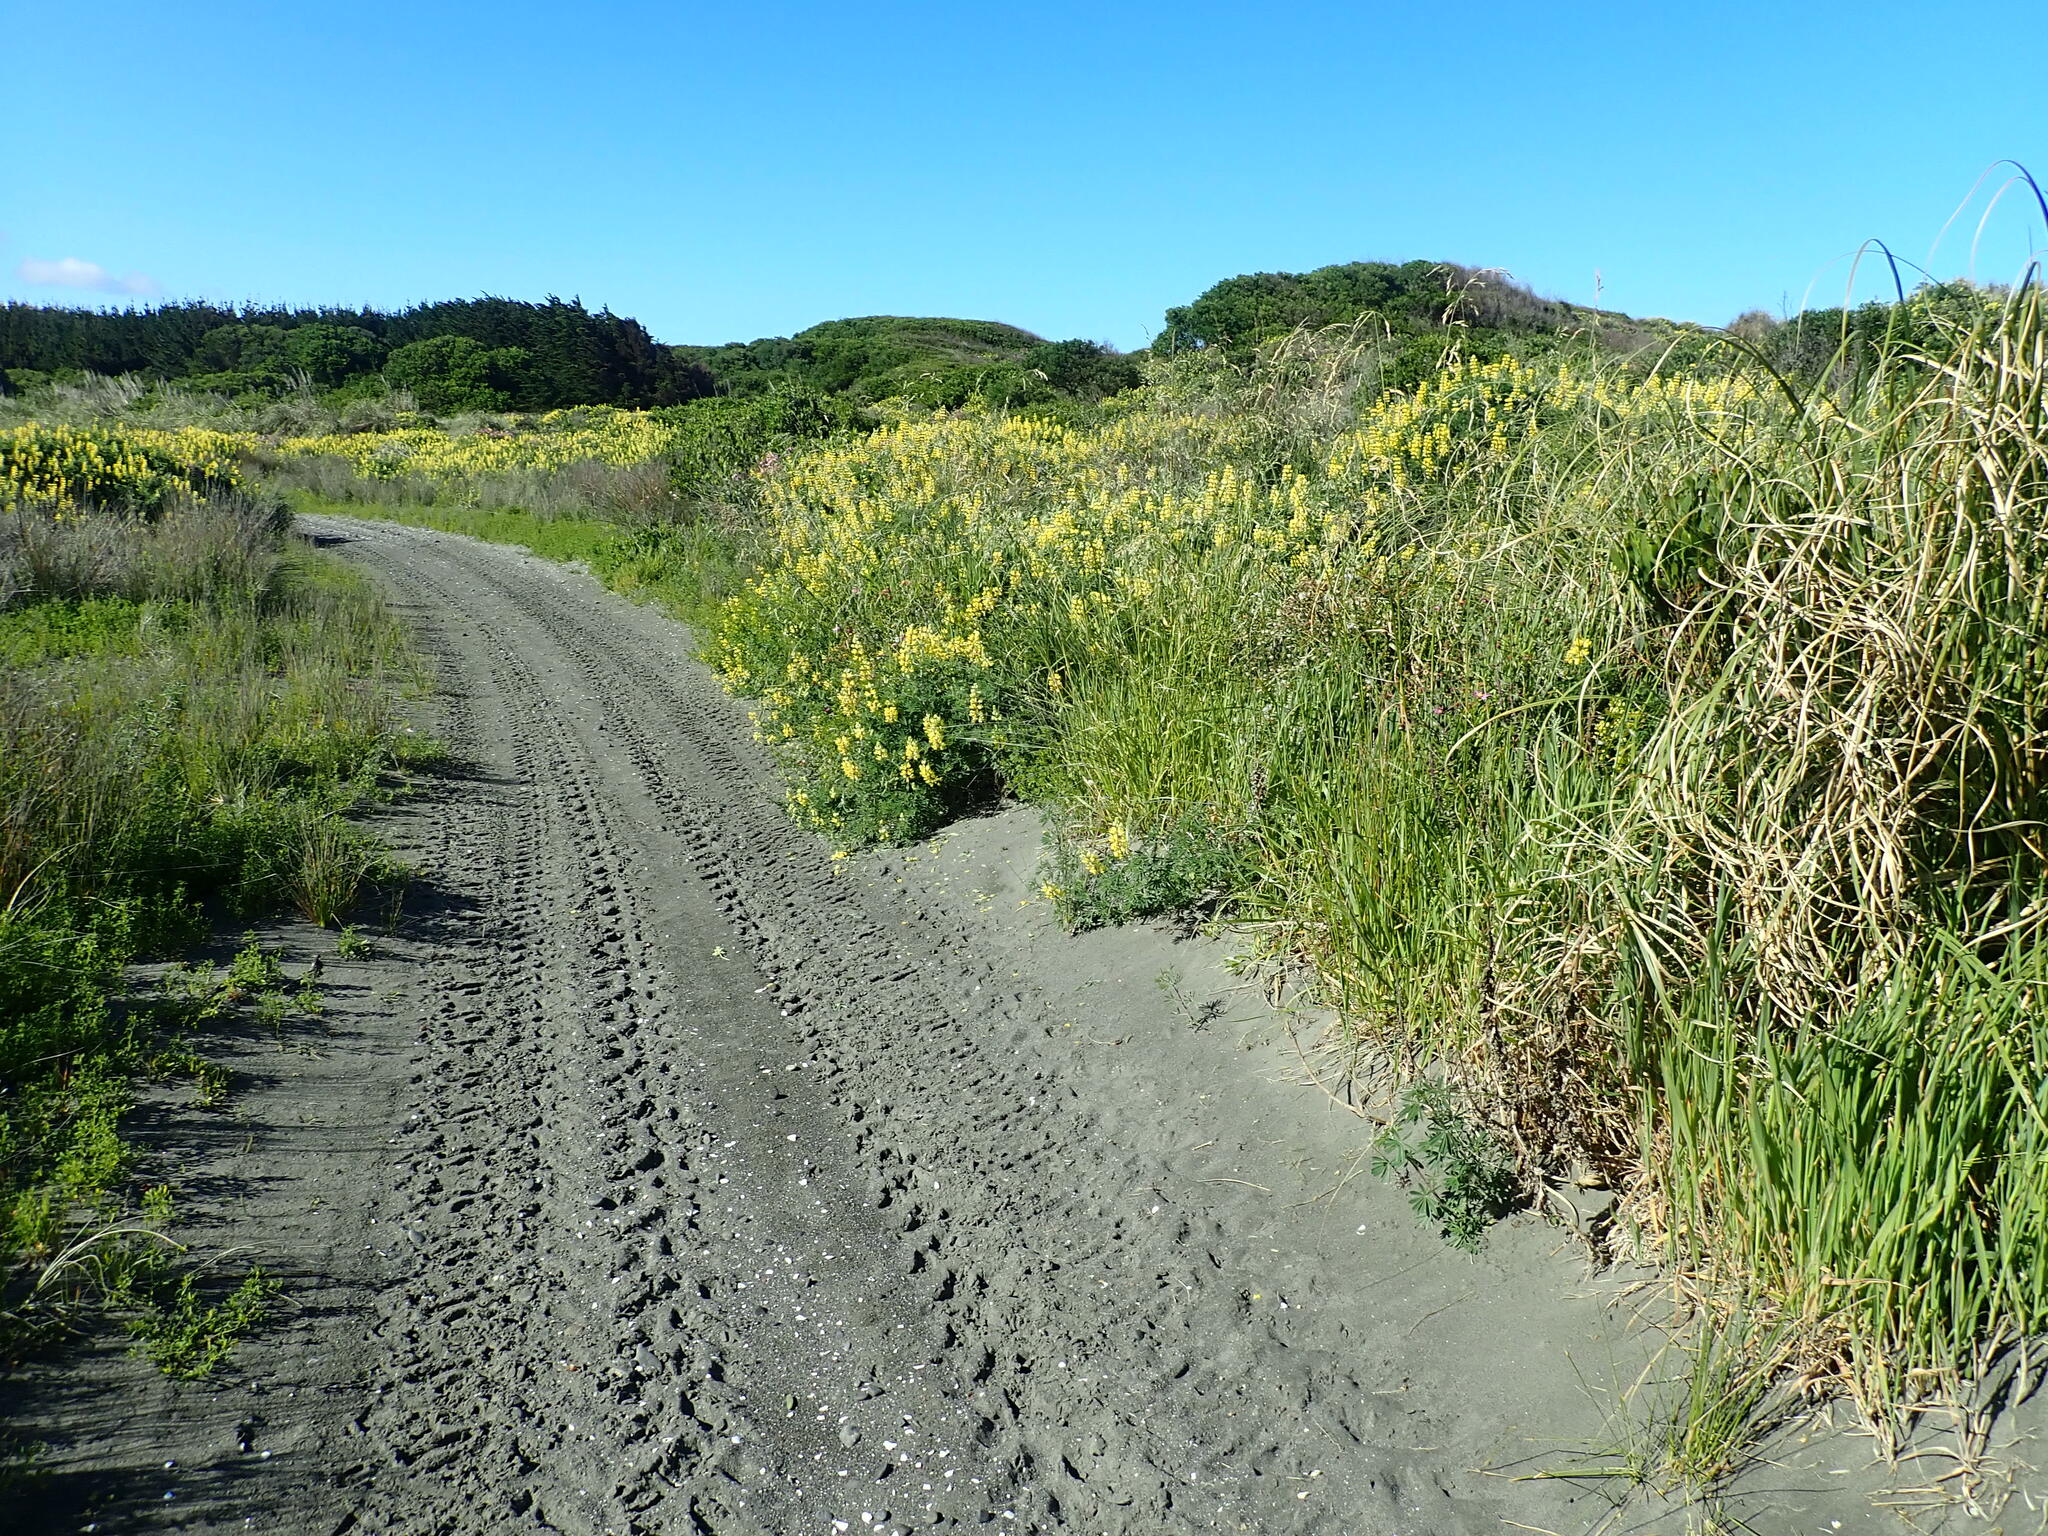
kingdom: Plantae
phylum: Tracheophyta
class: Magnoliopsida
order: Fabales
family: Fabaceae
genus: Lupinus
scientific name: Lupinus arboreus
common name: Yellow bush lupine
